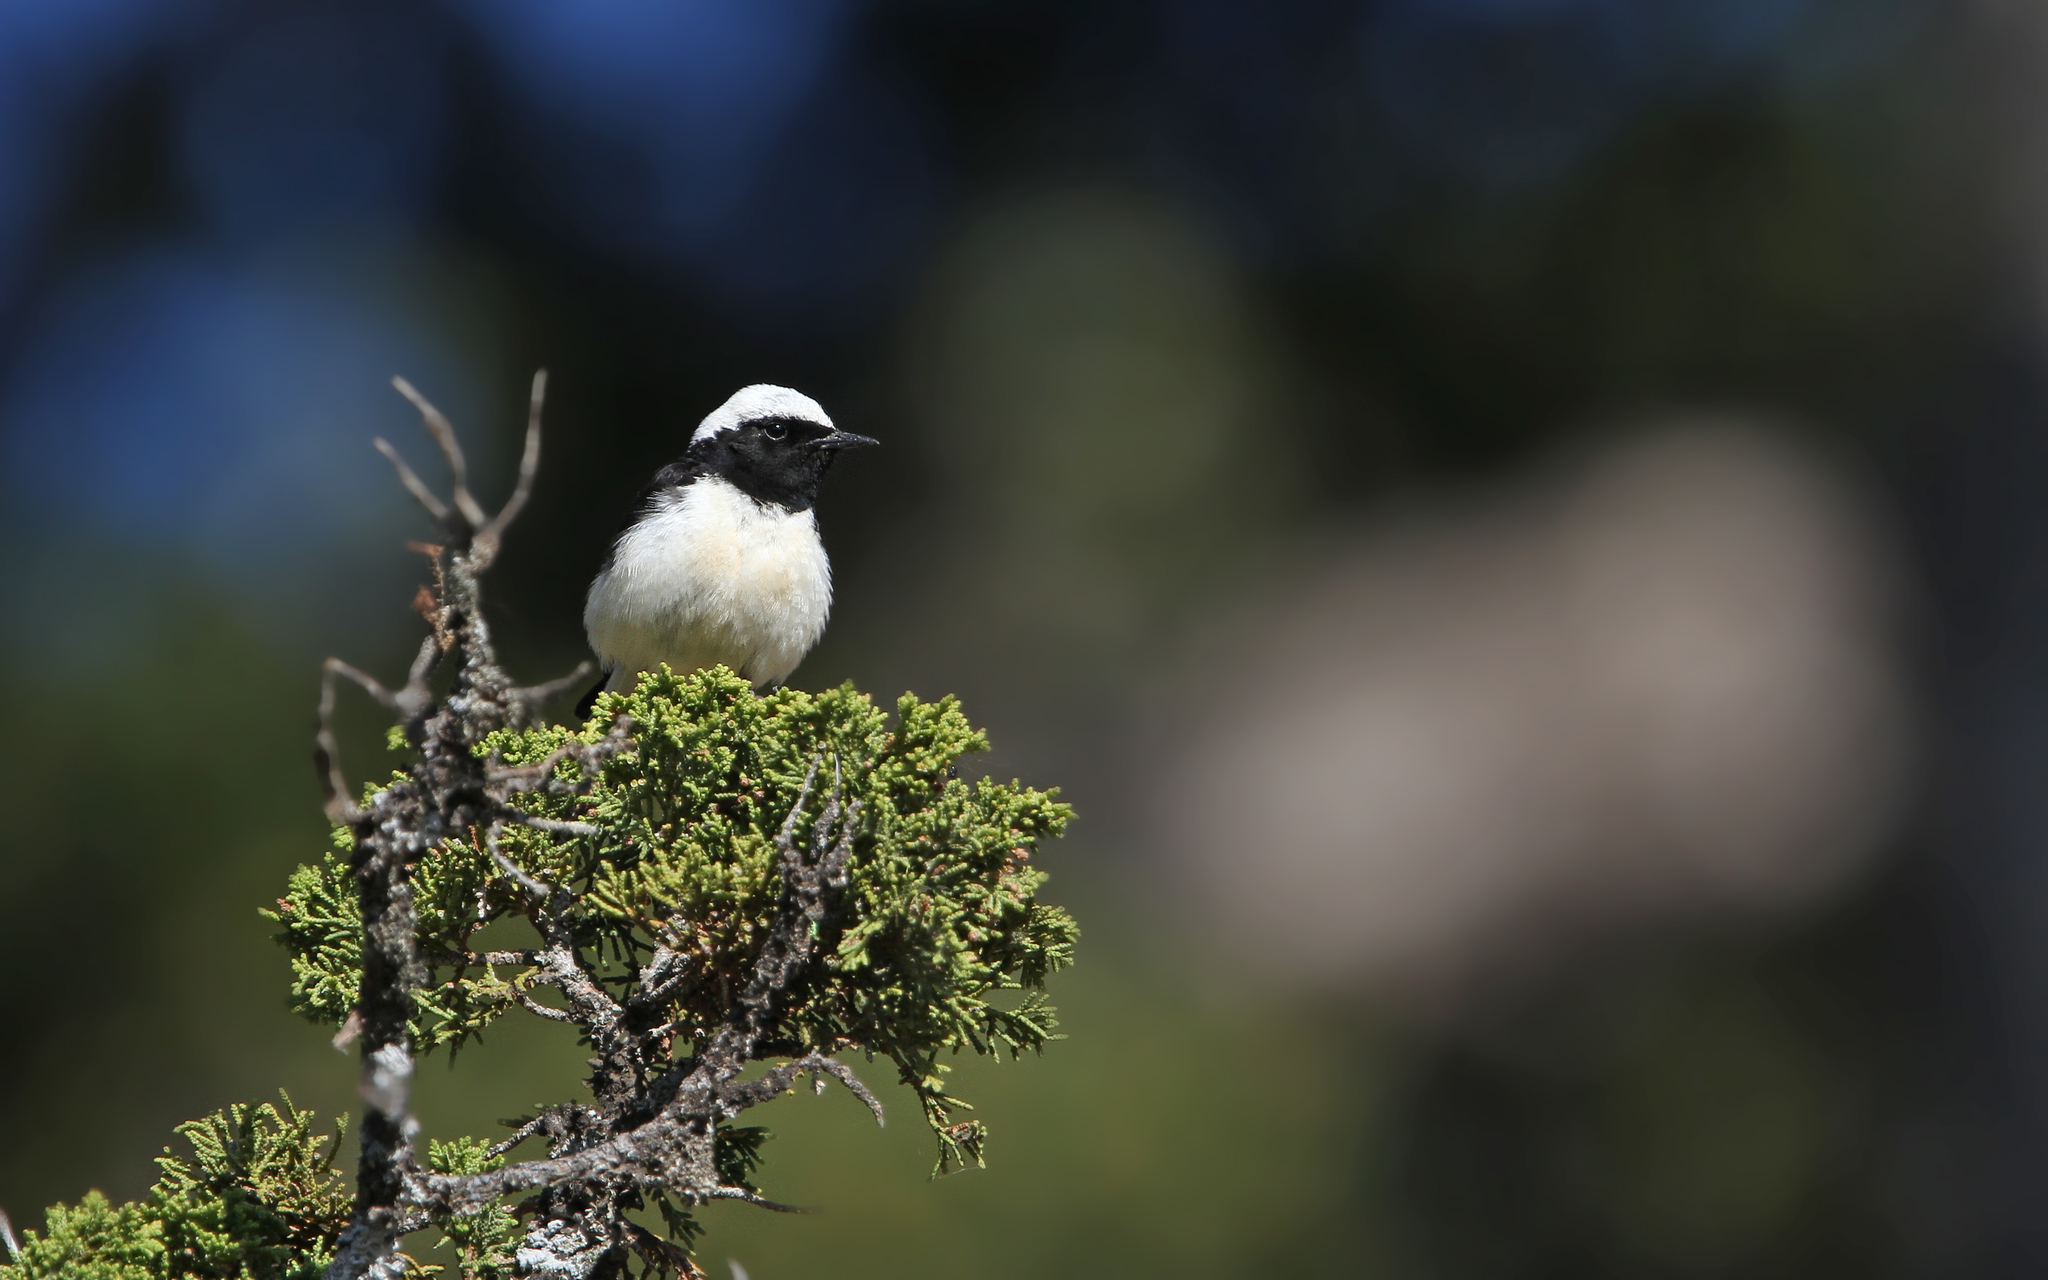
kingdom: Animalia
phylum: Chordata
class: Aves
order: Passeriformes
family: Muscicapidae
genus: Oenanthe
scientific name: Oenanthe cypriaca
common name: Cyprus wheatear
